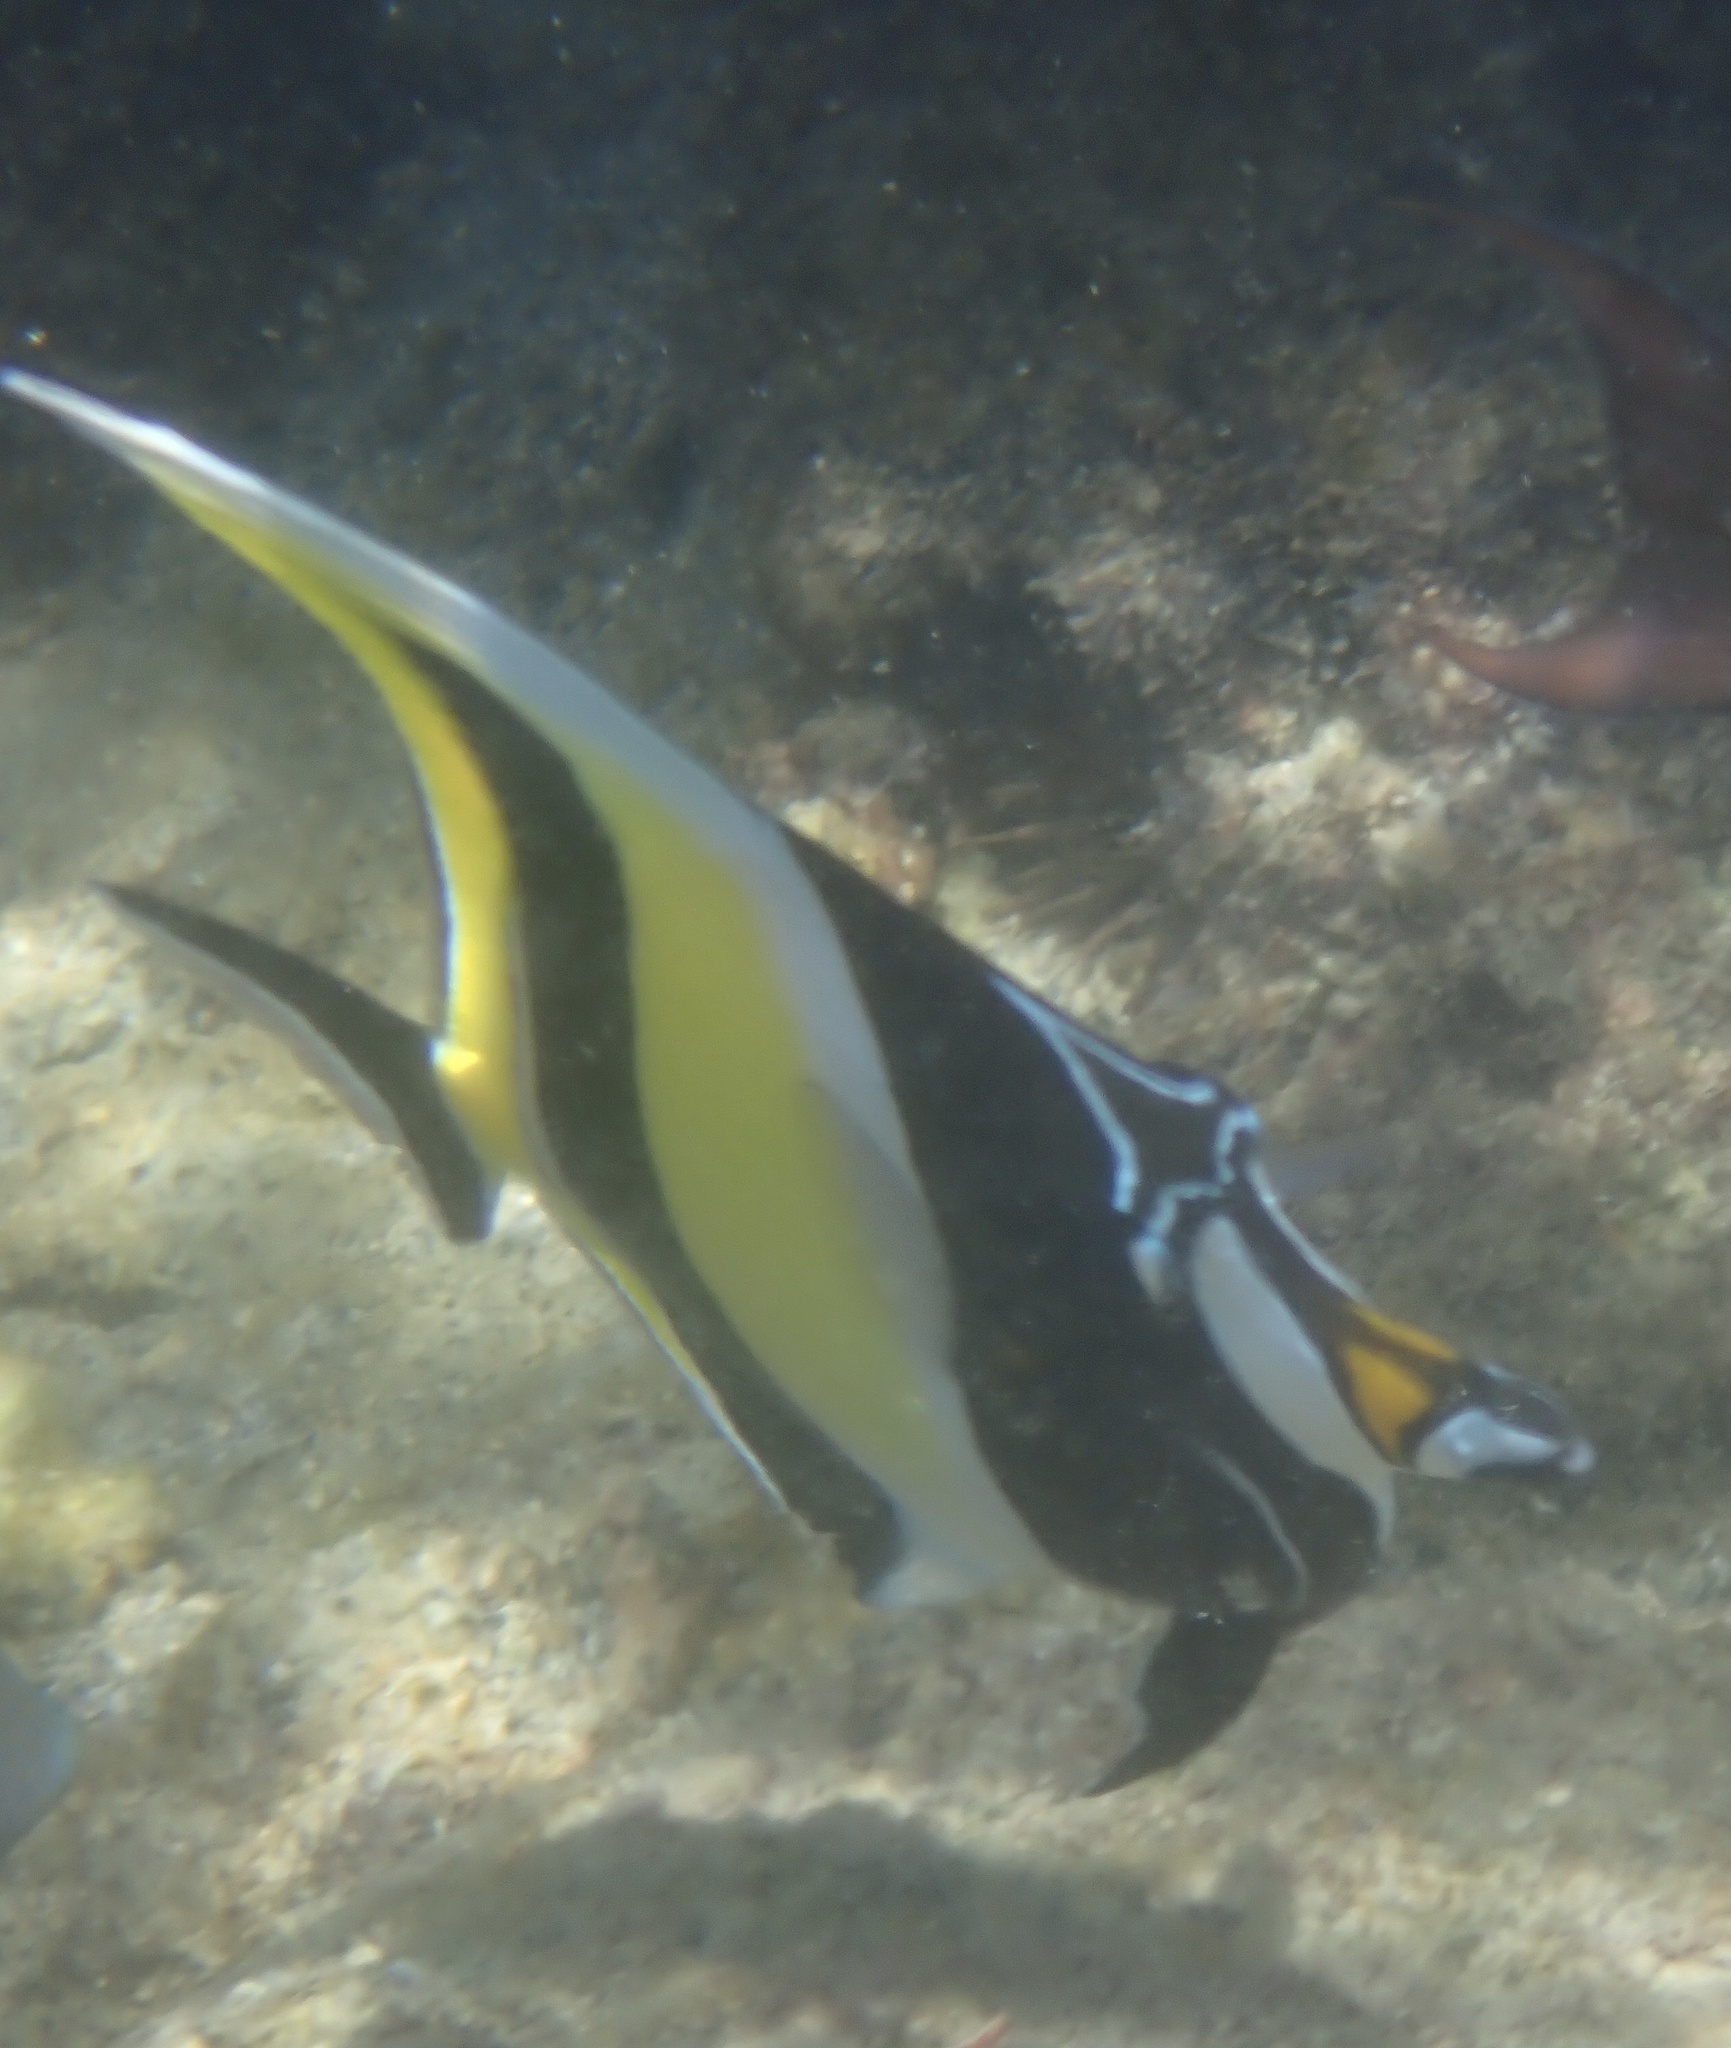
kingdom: Animalia
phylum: Chordata
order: Perciformes
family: Zanclidae
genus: Zanclus
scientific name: Zanclus cornutus
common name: Moorish idol
